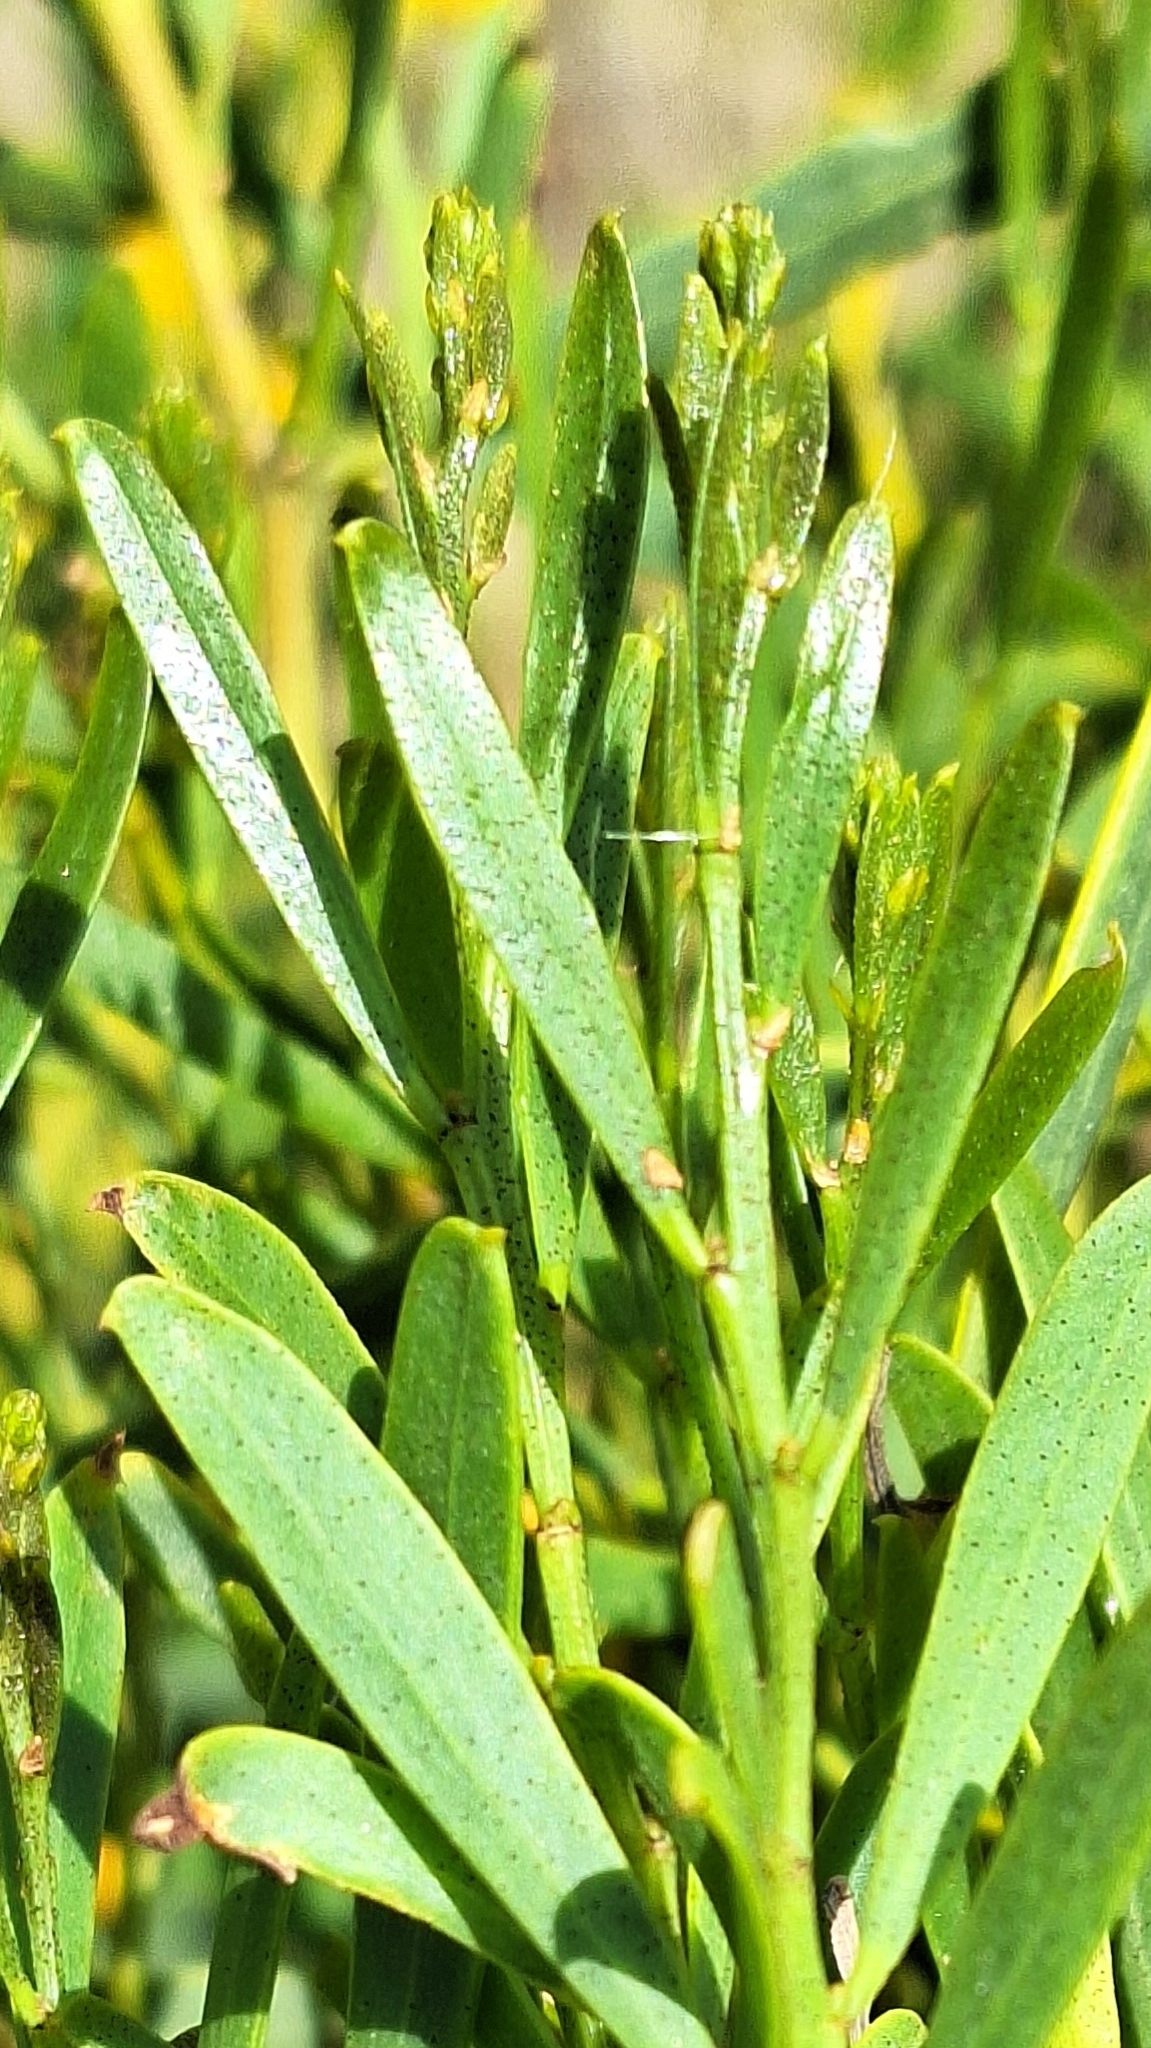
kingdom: Plantae
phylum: Tracheophyta
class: Magnoliopsida
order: Fabales
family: Fabaceae
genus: Acacia
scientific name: Acacia ligulata
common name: Dune wattle
